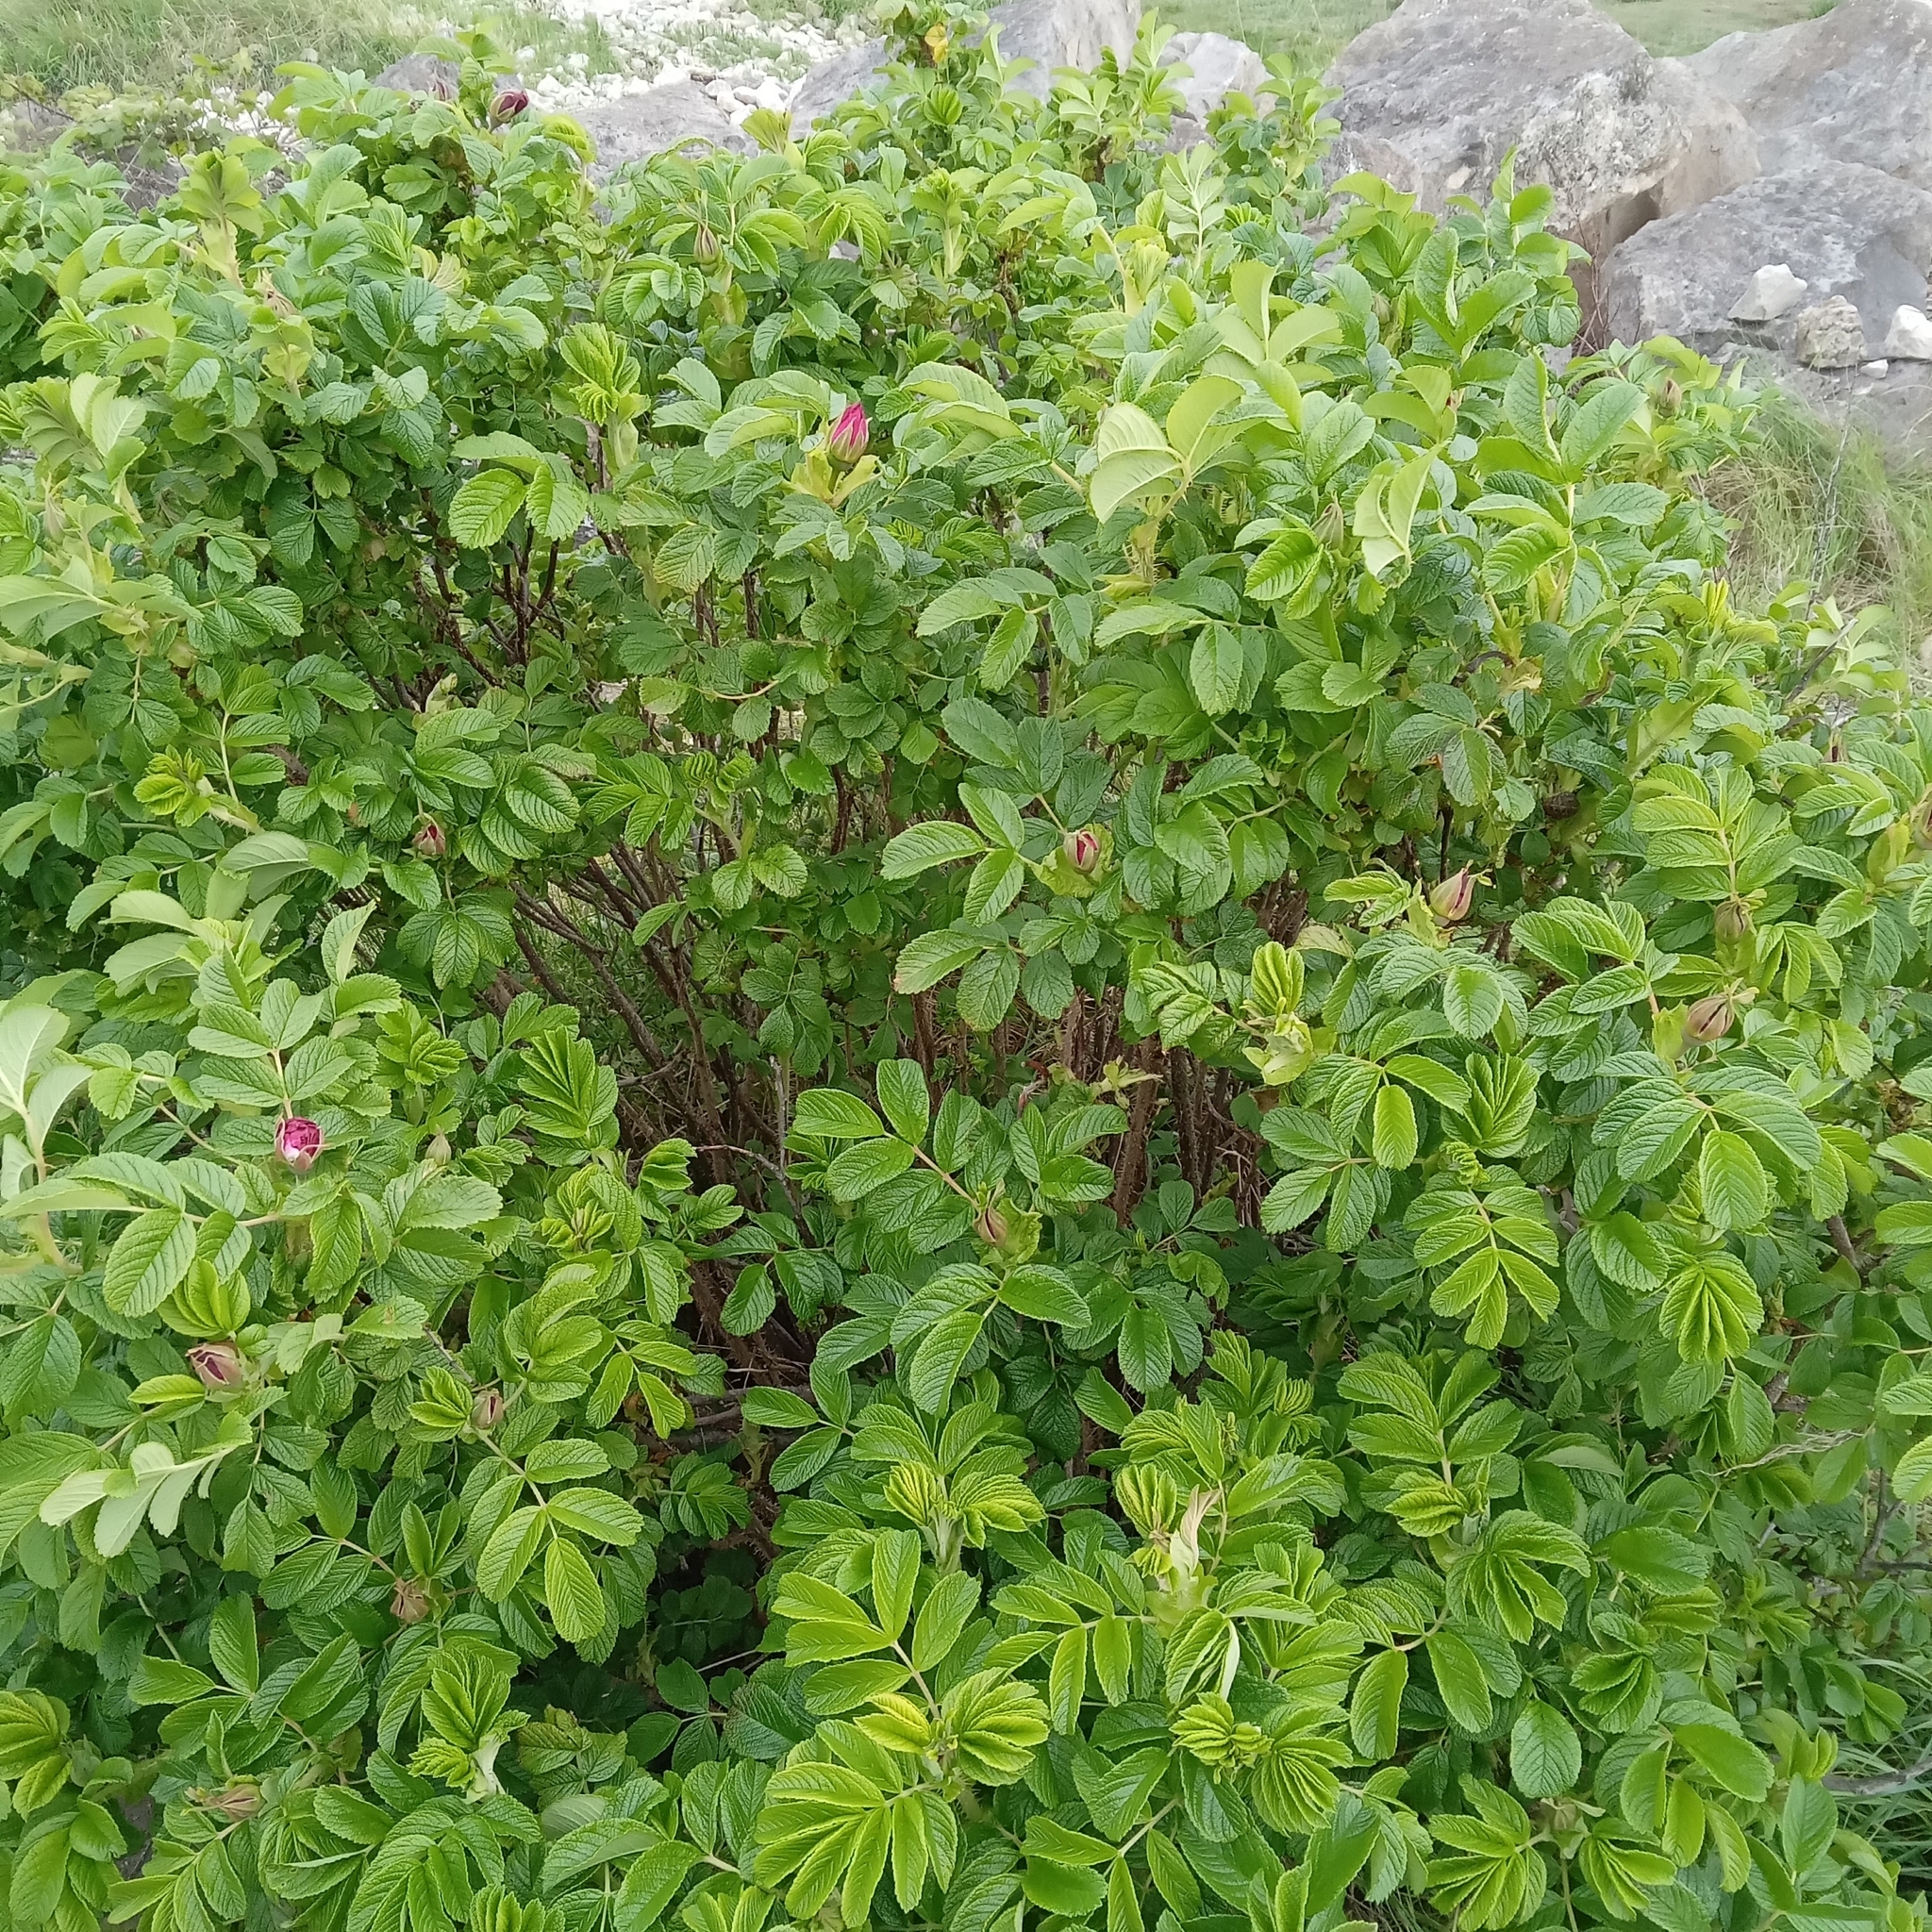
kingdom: Plantae
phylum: Tracheophyta
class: Magnoliopsida
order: Rosales
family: Rosaceae
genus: Rosa
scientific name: Rosa rugosa
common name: Japanese rose
